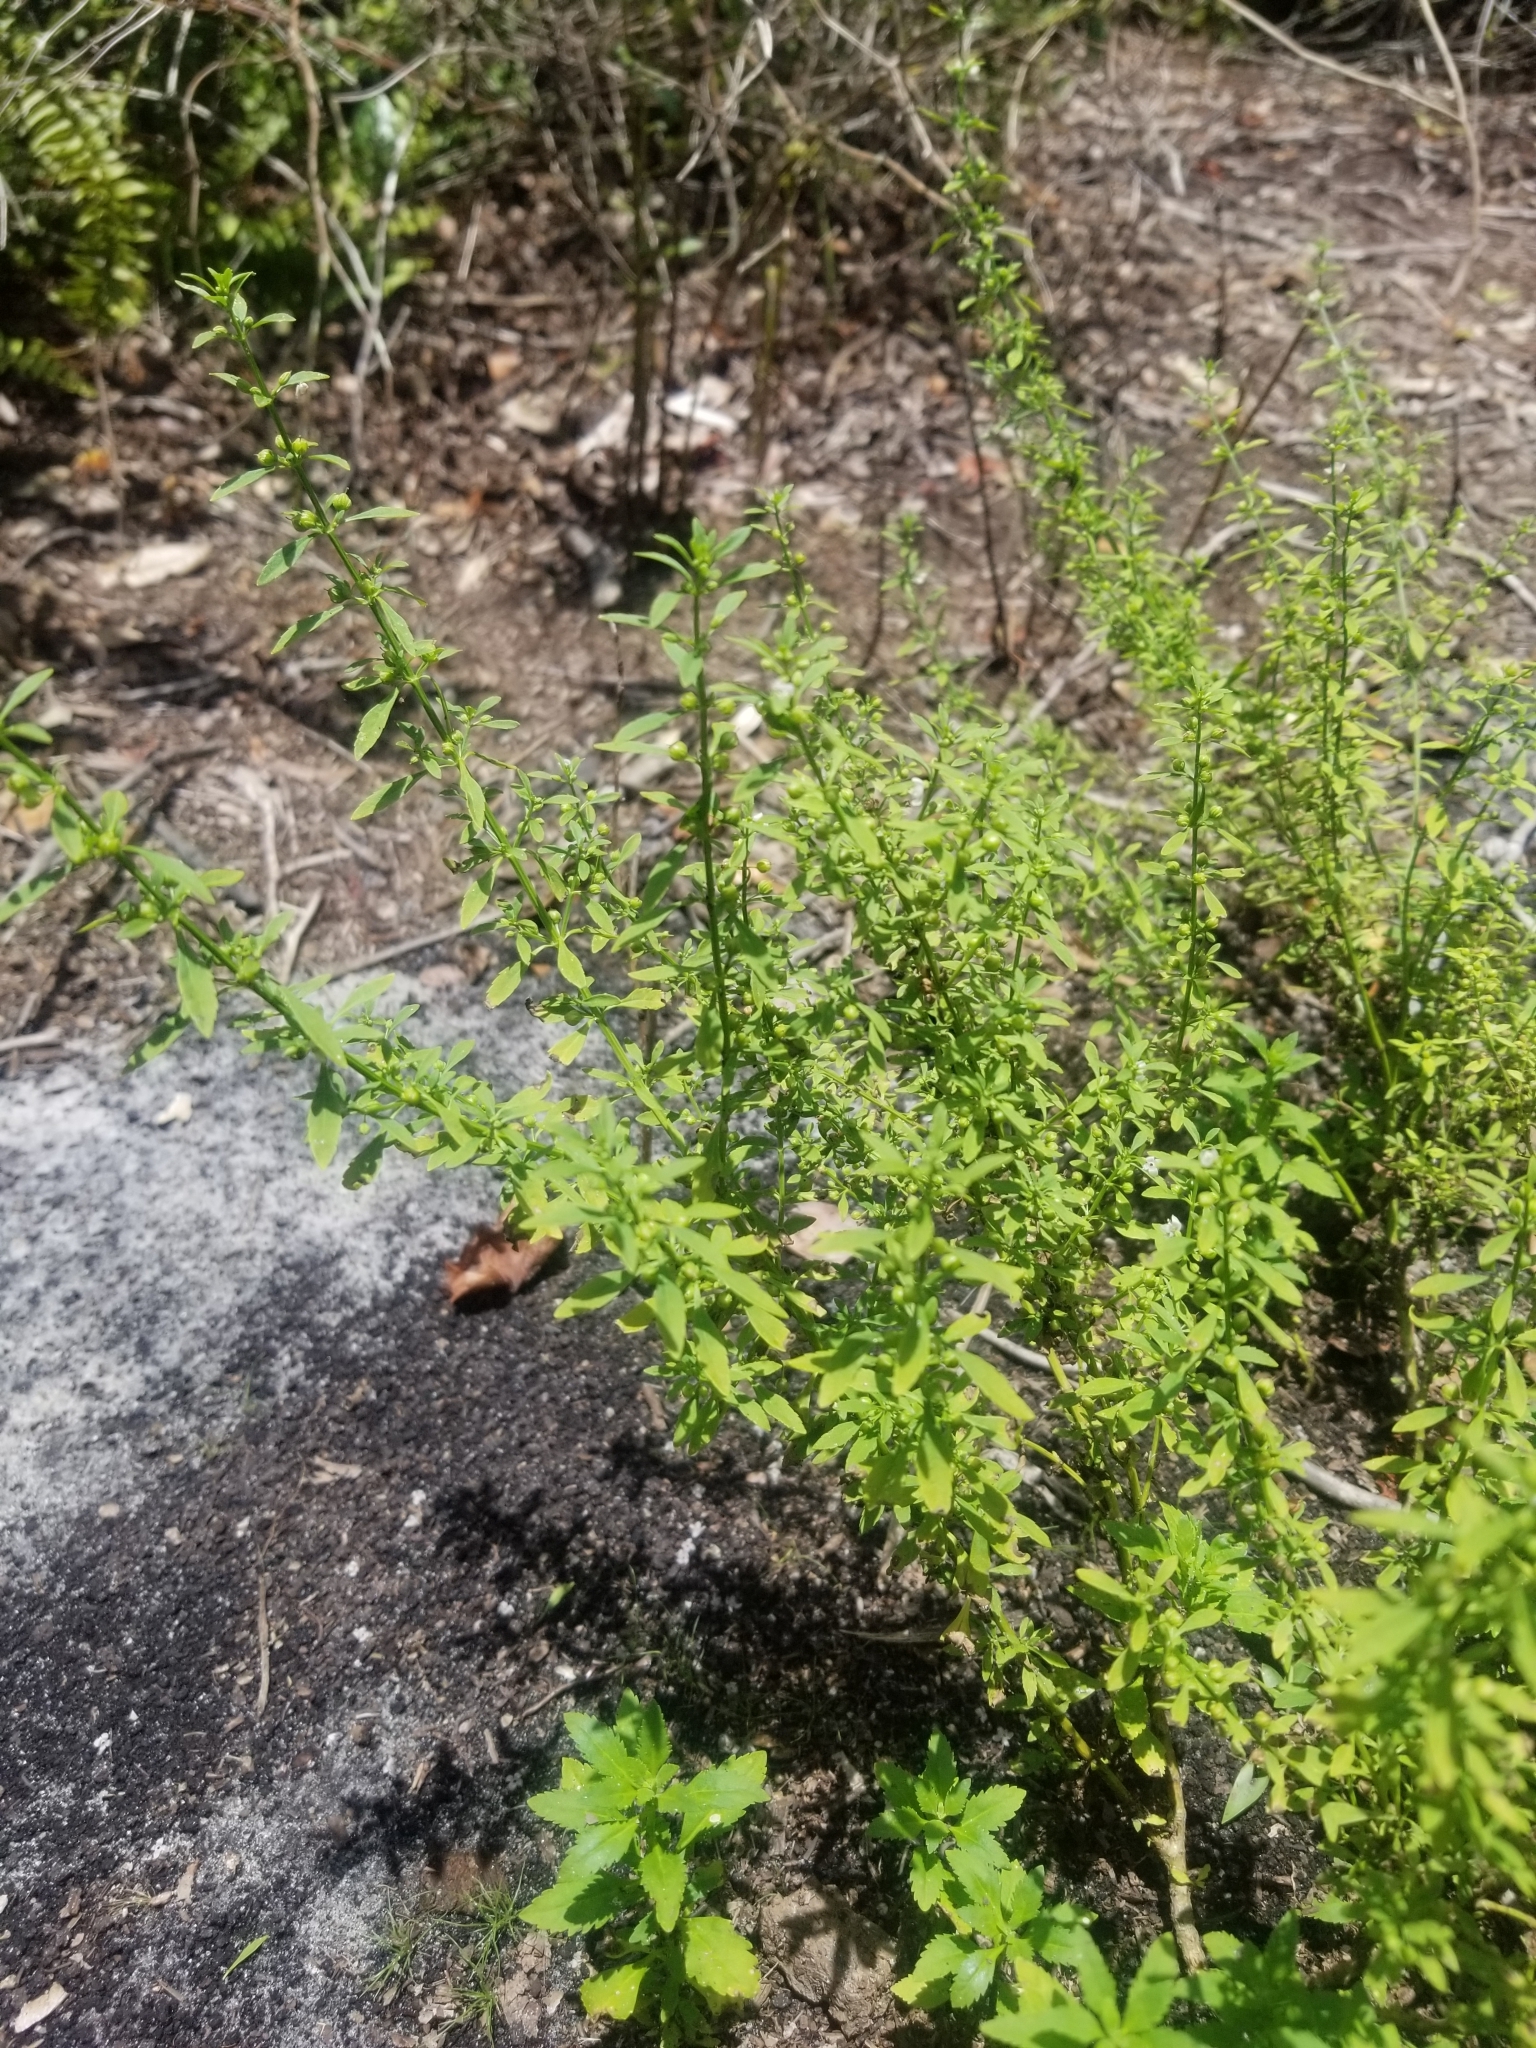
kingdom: Plantae
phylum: Tracheophyta
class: Magnoliopsida
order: Lamiales
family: Plantaginaceae
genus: Scoparia
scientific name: Scoparia dulcis
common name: Scoparia-weed
